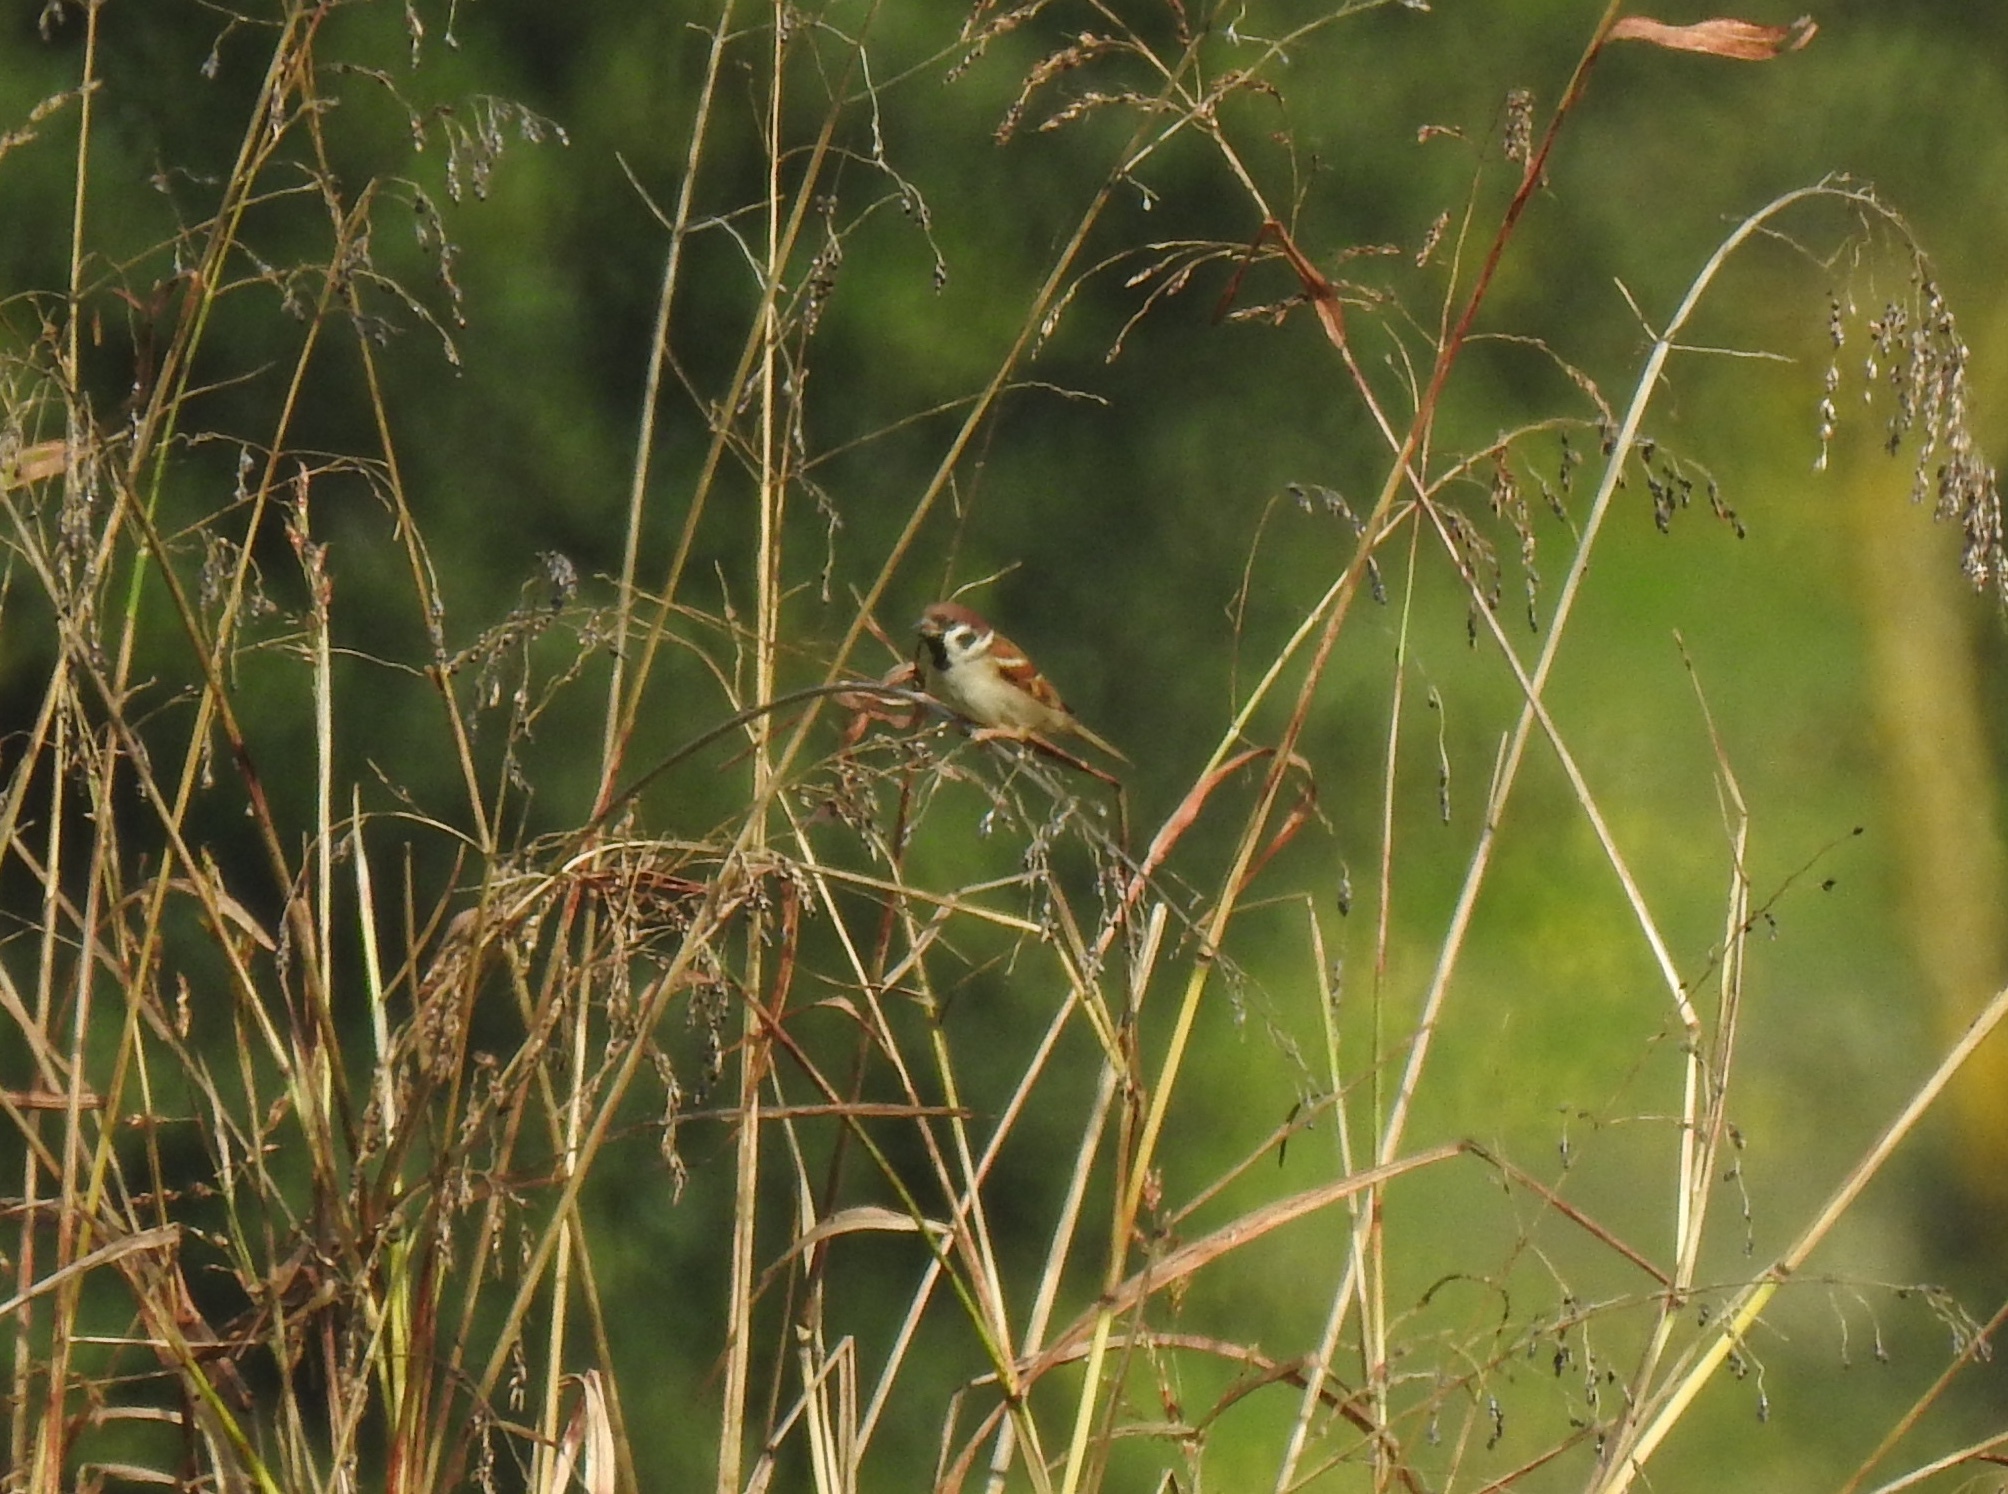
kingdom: Animalia
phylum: Chordata
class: Aves
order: Passeriformes
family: Passeridae
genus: Passer
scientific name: Passer montanus
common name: Eurasian tree sparrow
